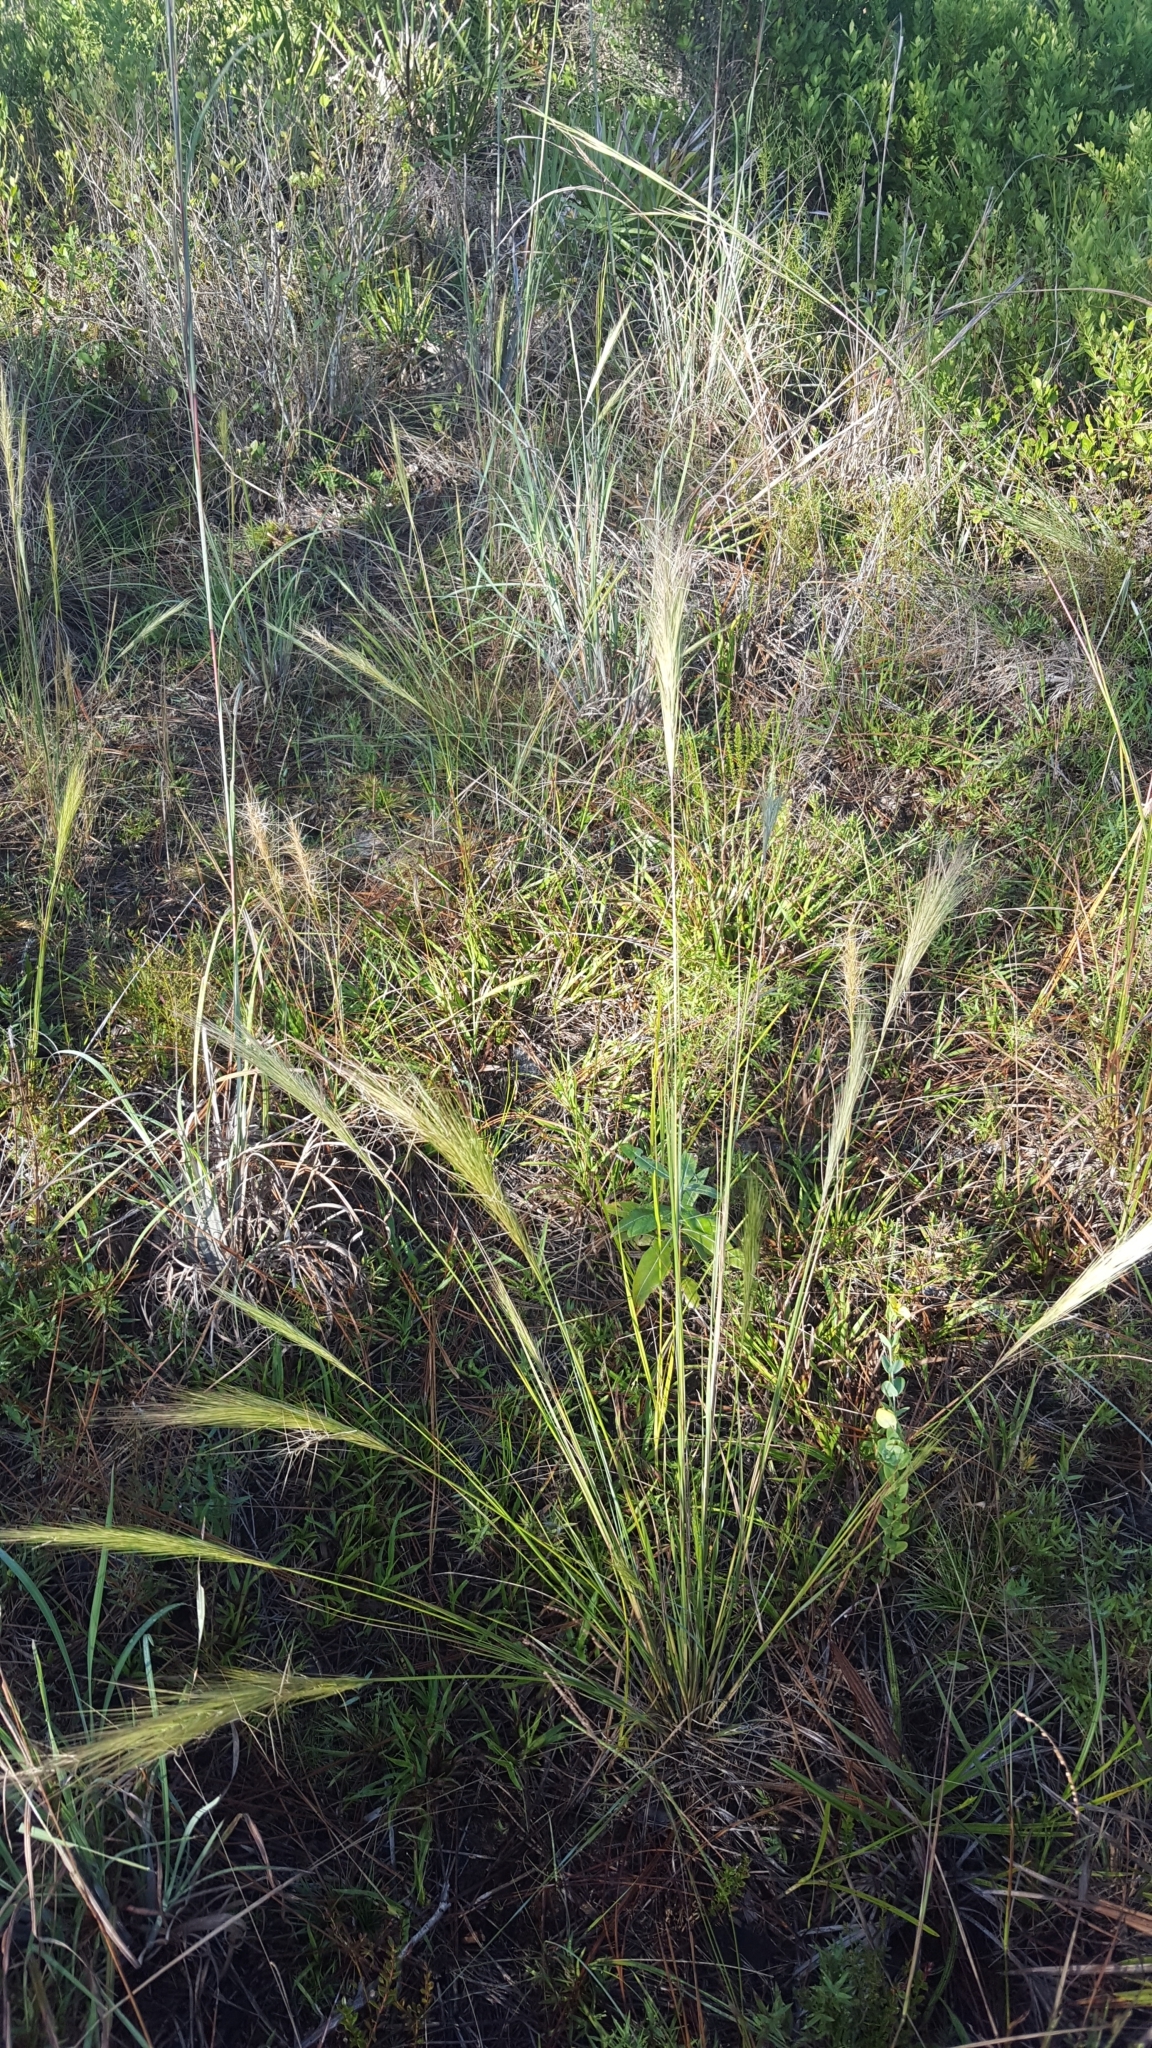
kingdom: Plantae
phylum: Tracheophyta
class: Liliopsida
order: Poales
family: Poaceae
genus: Aristida
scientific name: Aristida spiciformis
